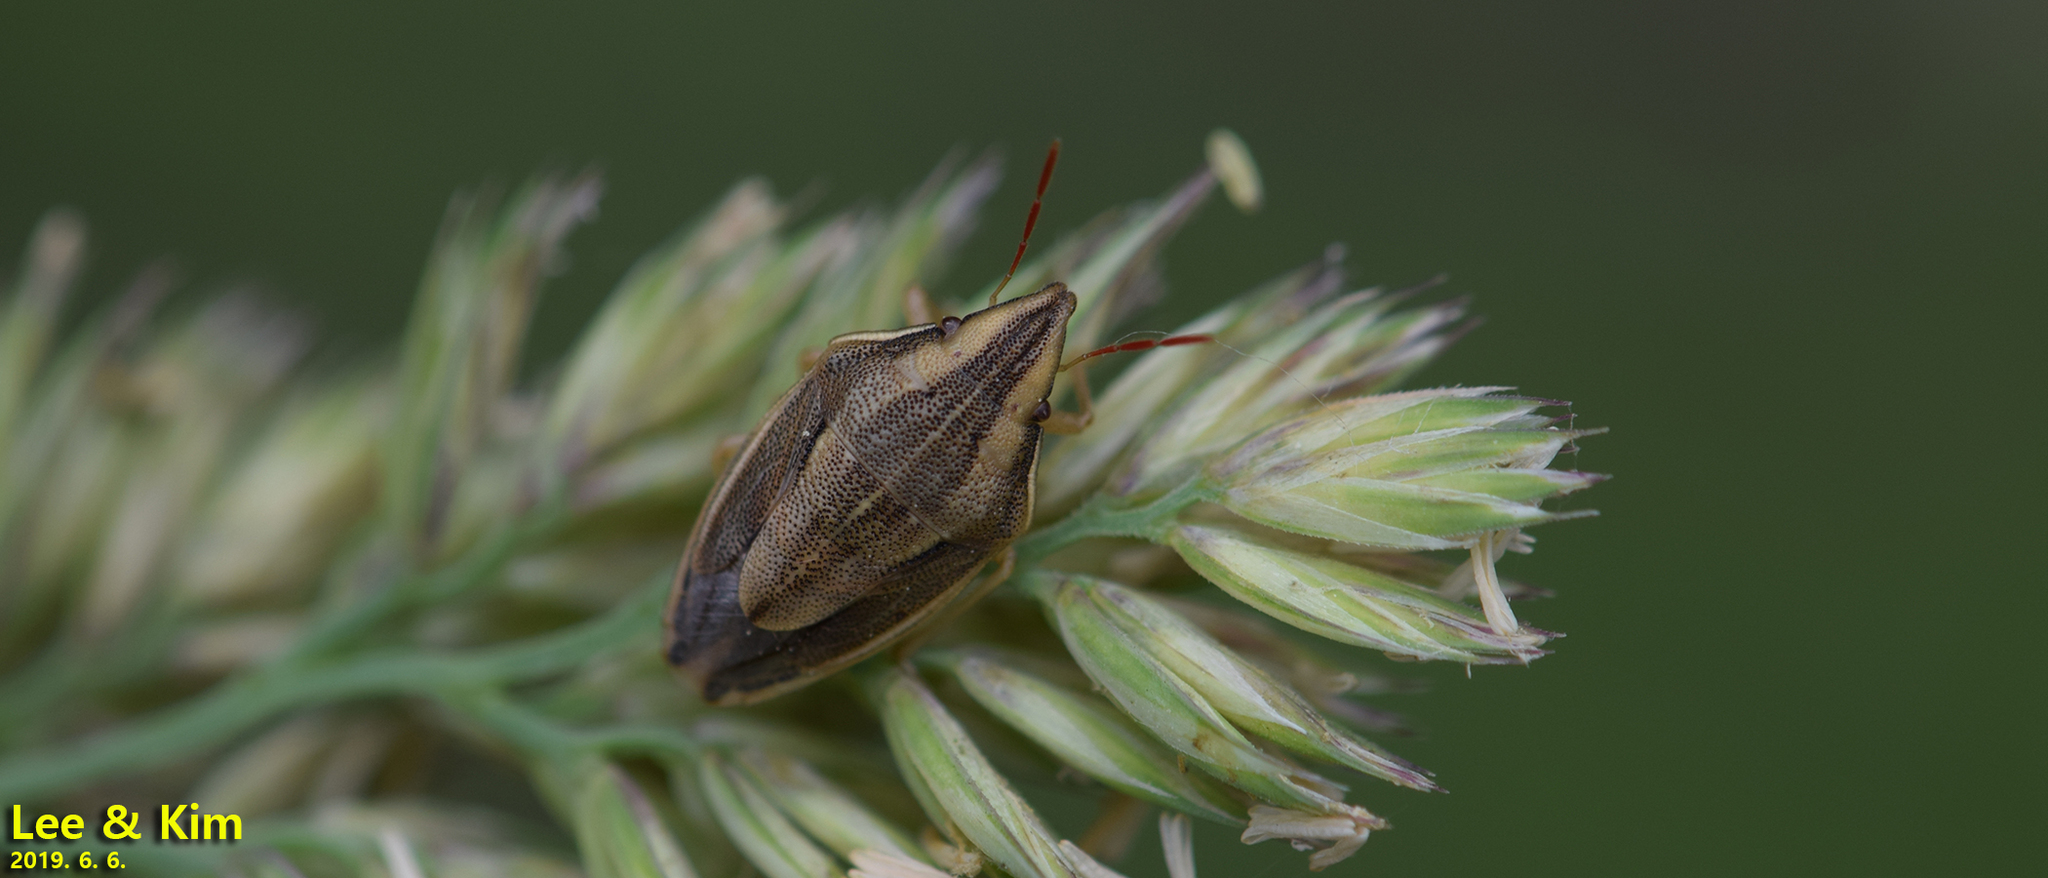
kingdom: Animalia
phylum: Arthropoda
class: Insecta
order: Hemiptera
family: Pentatomidae
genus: Aelia
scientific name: Aelia
